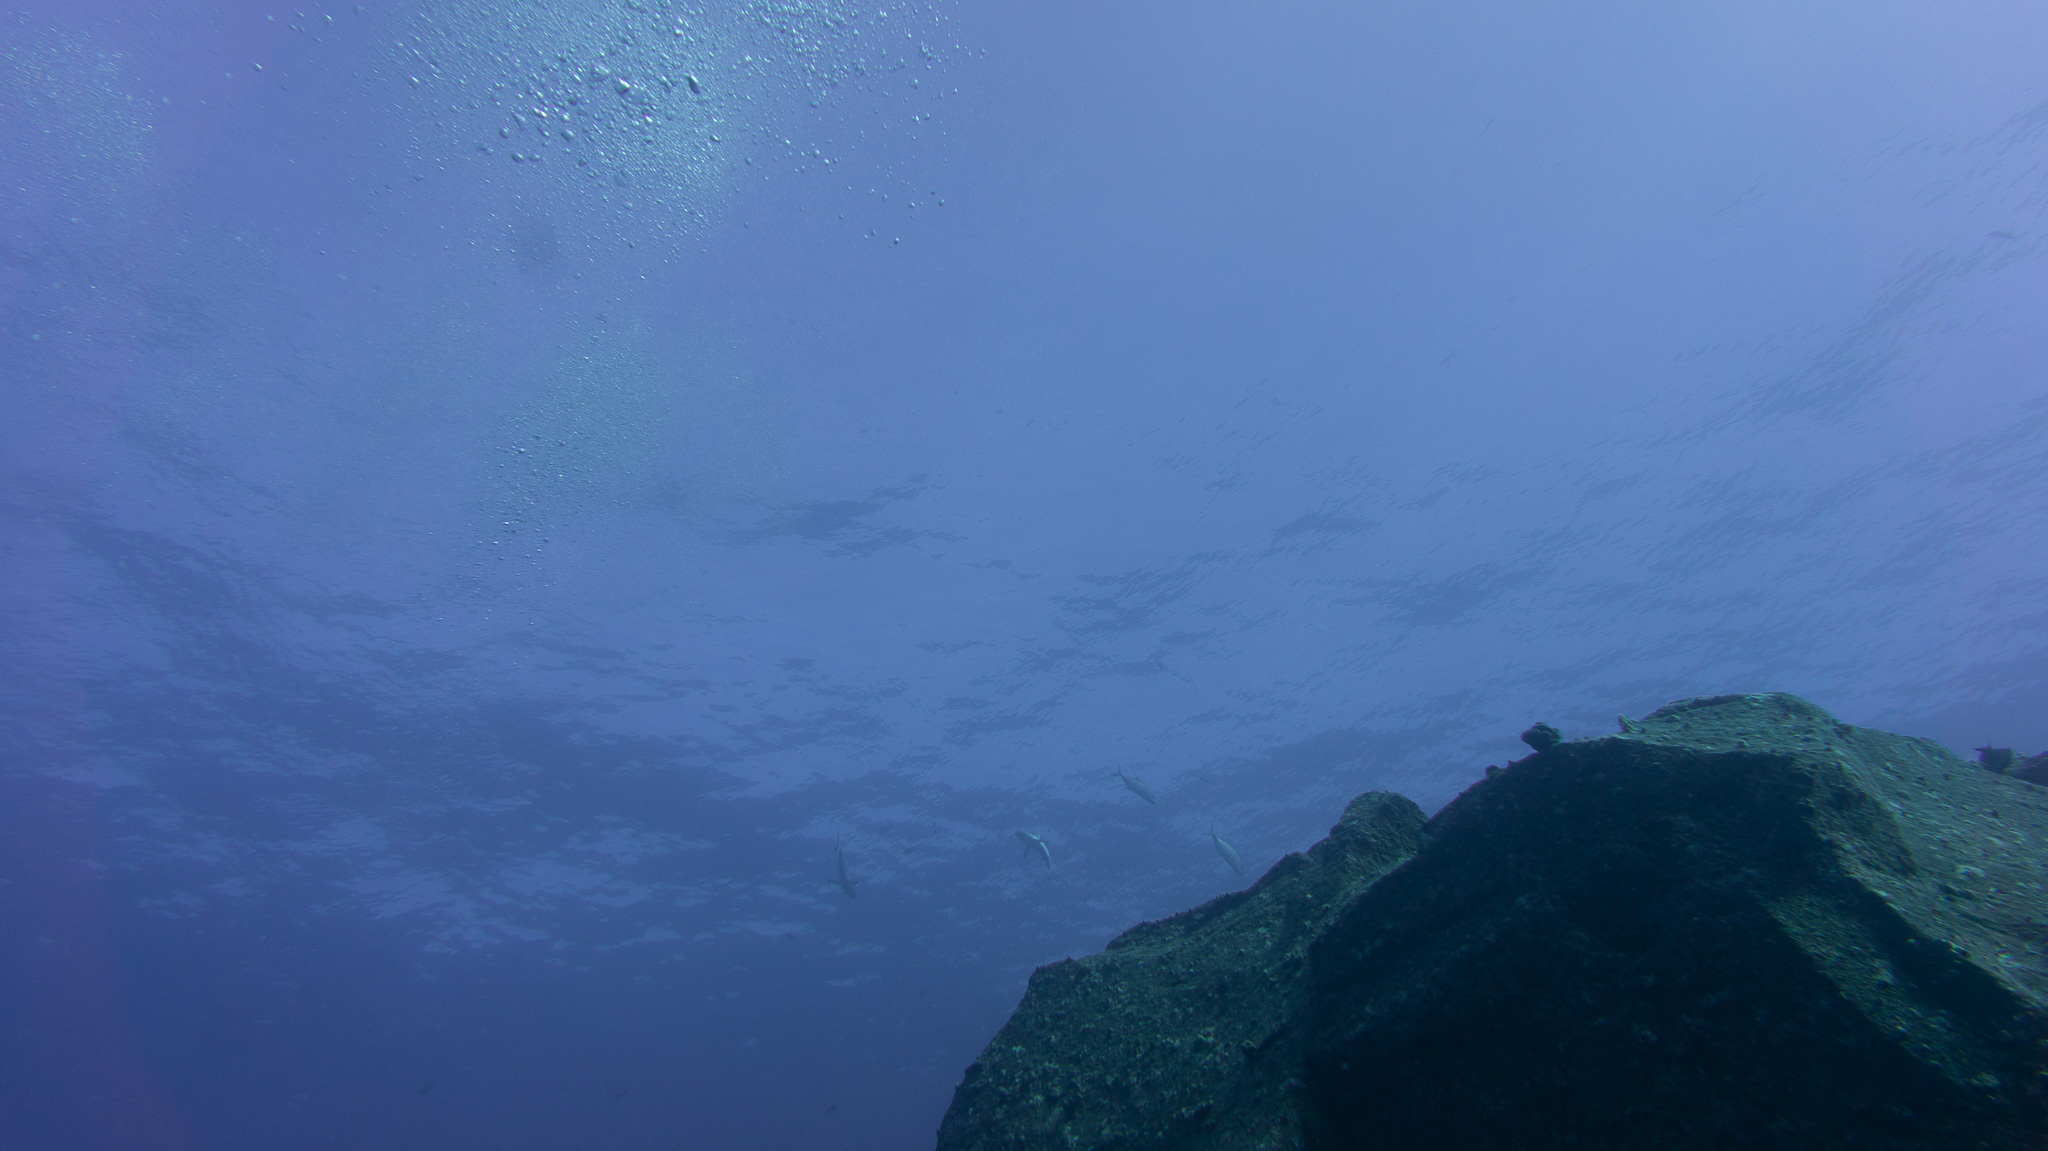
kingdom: Animalia
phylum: Chordata
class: Elasmobranchii
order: Carcharhiniformes
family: Carcharhinidae
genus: Carcharhinus
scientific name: Carcharhinus amblyrhynchos
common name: Grey reef shark
